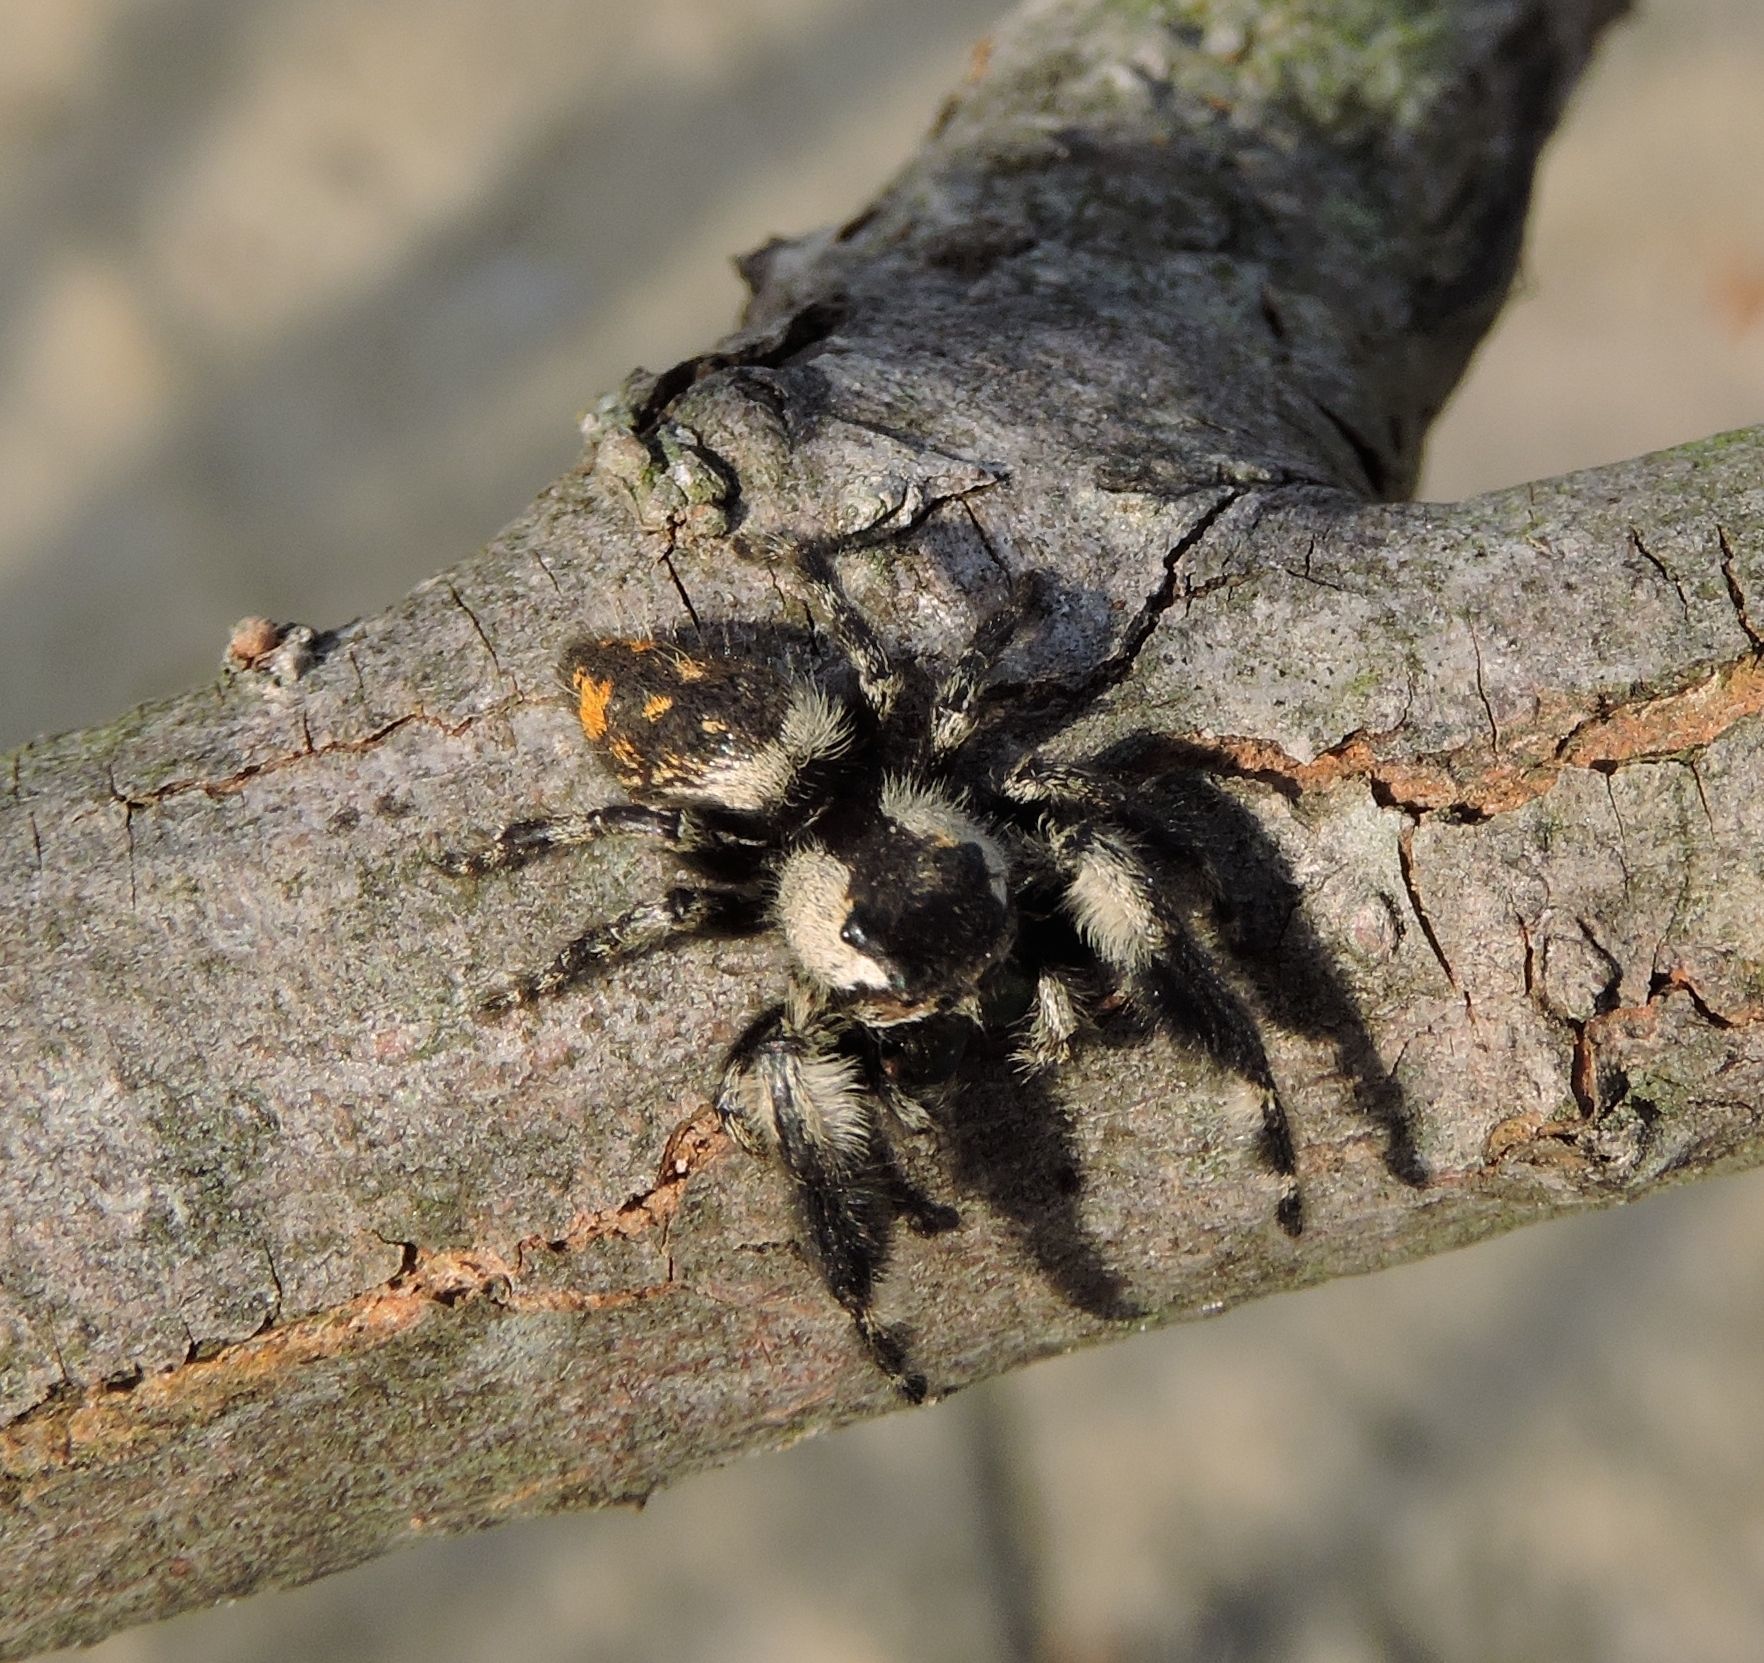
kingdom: Animalia
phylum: Arthropoda
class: Arachnida
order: Araneae
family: Salticidae
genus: Phidippus
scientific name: Phidippus otiosus
